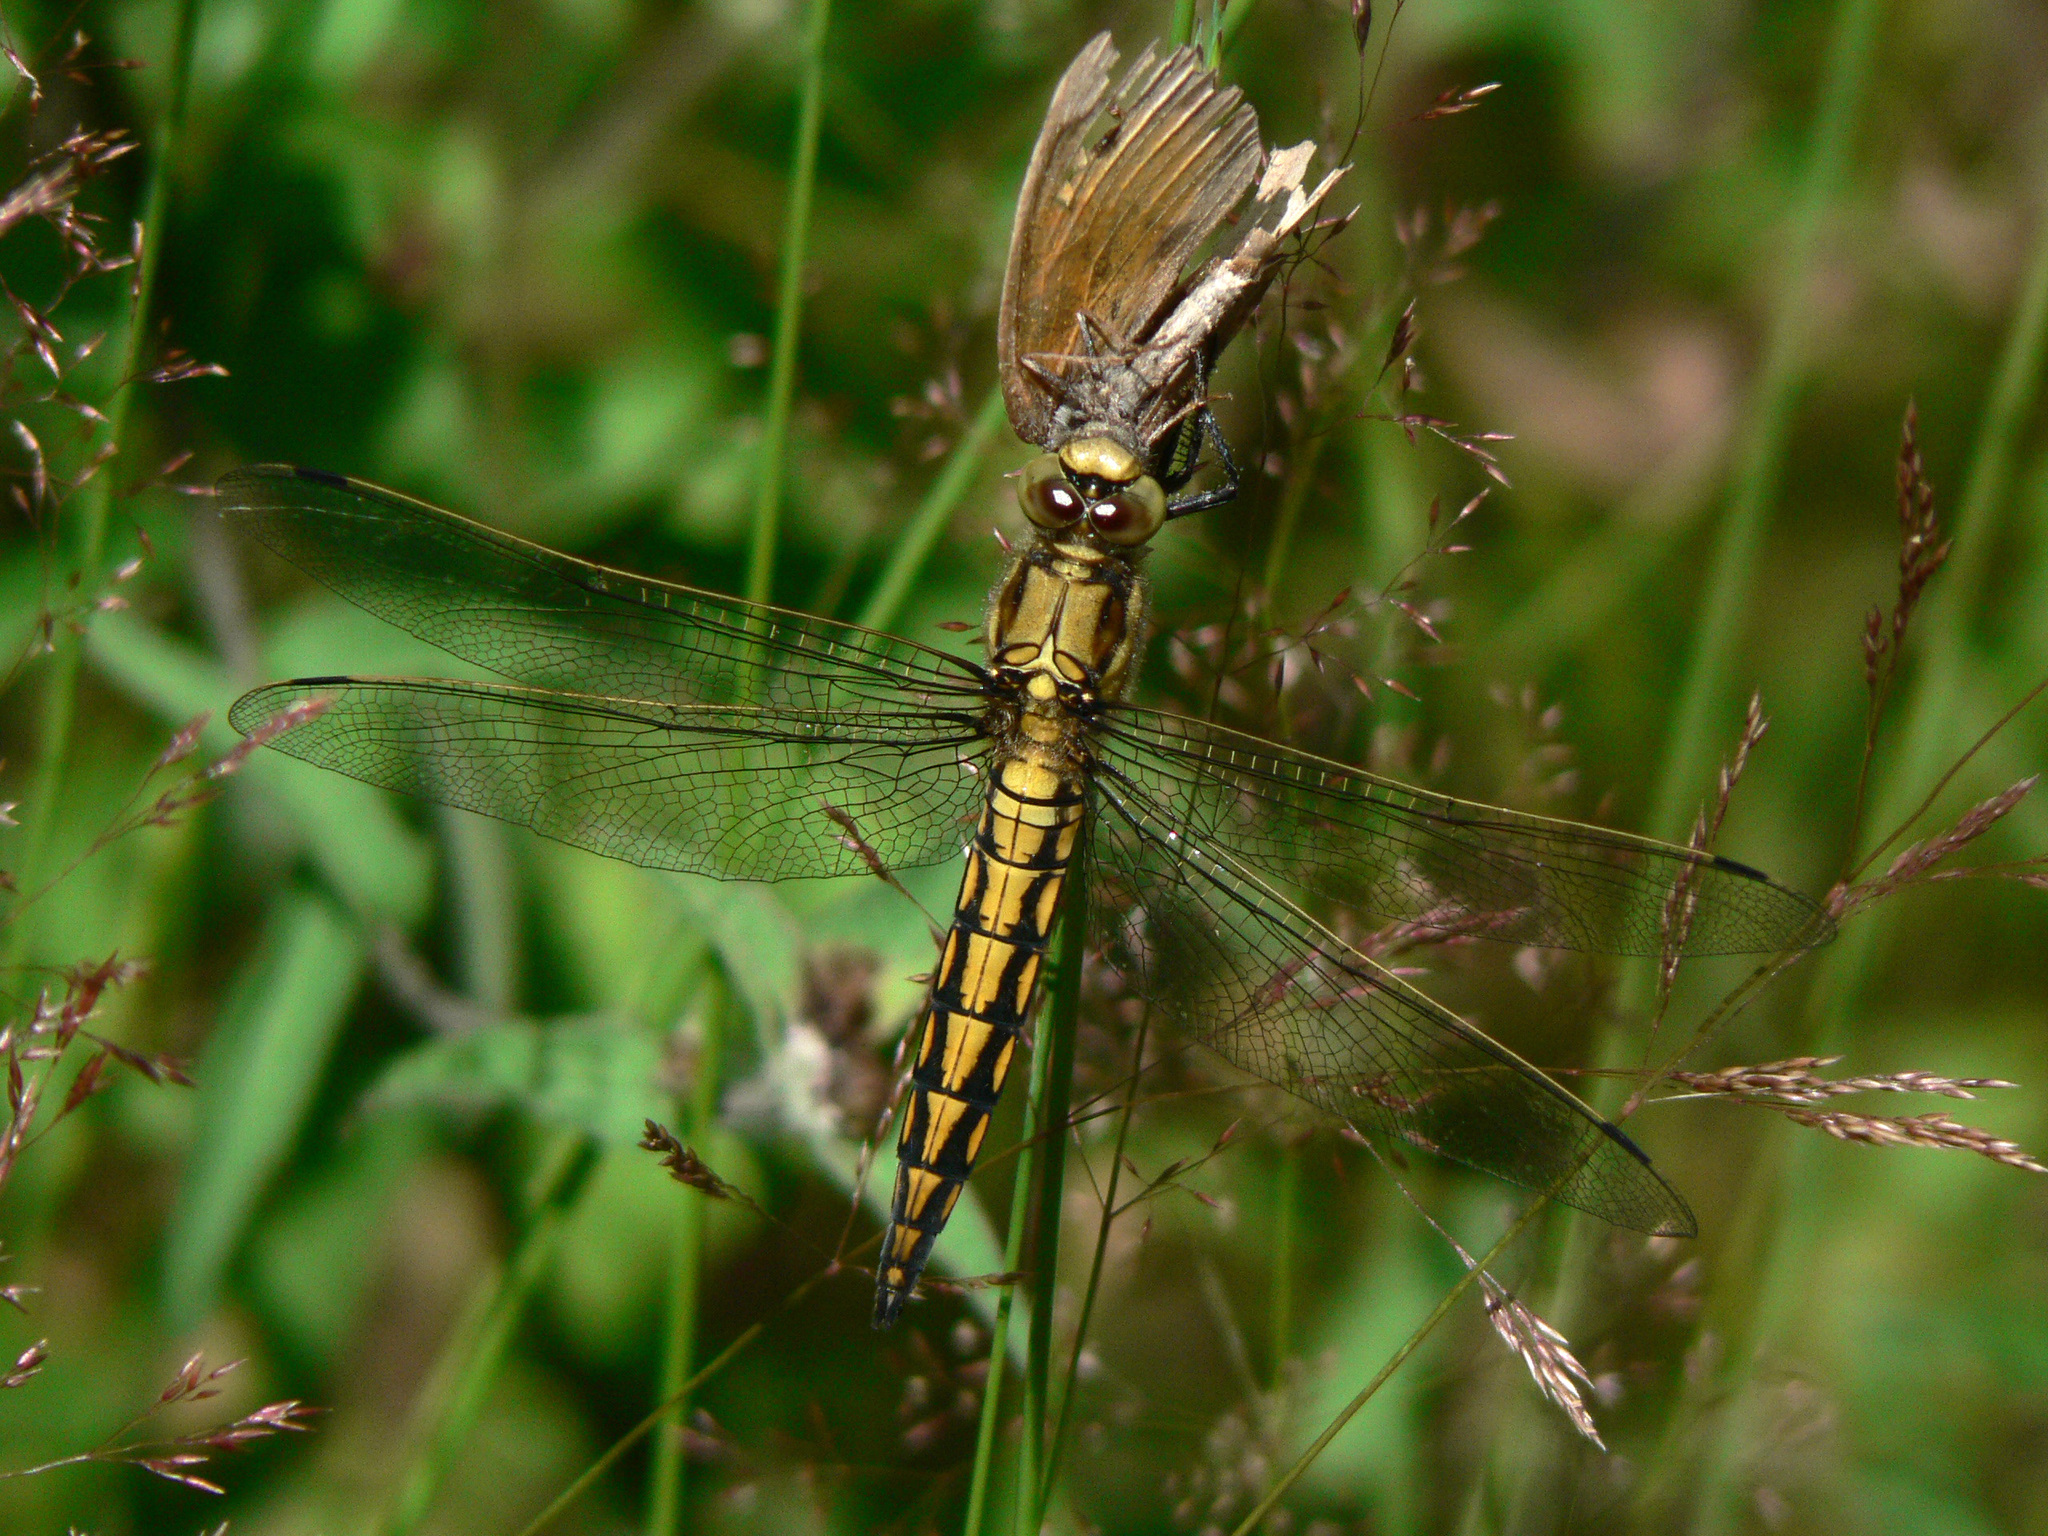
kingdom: Animalia
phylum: Arthropoda
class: Insecta
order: Odonata
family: Libellulidae
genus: Orthetrum
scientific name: Orthetrum cancellatum
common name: Black-tailed skimmer
